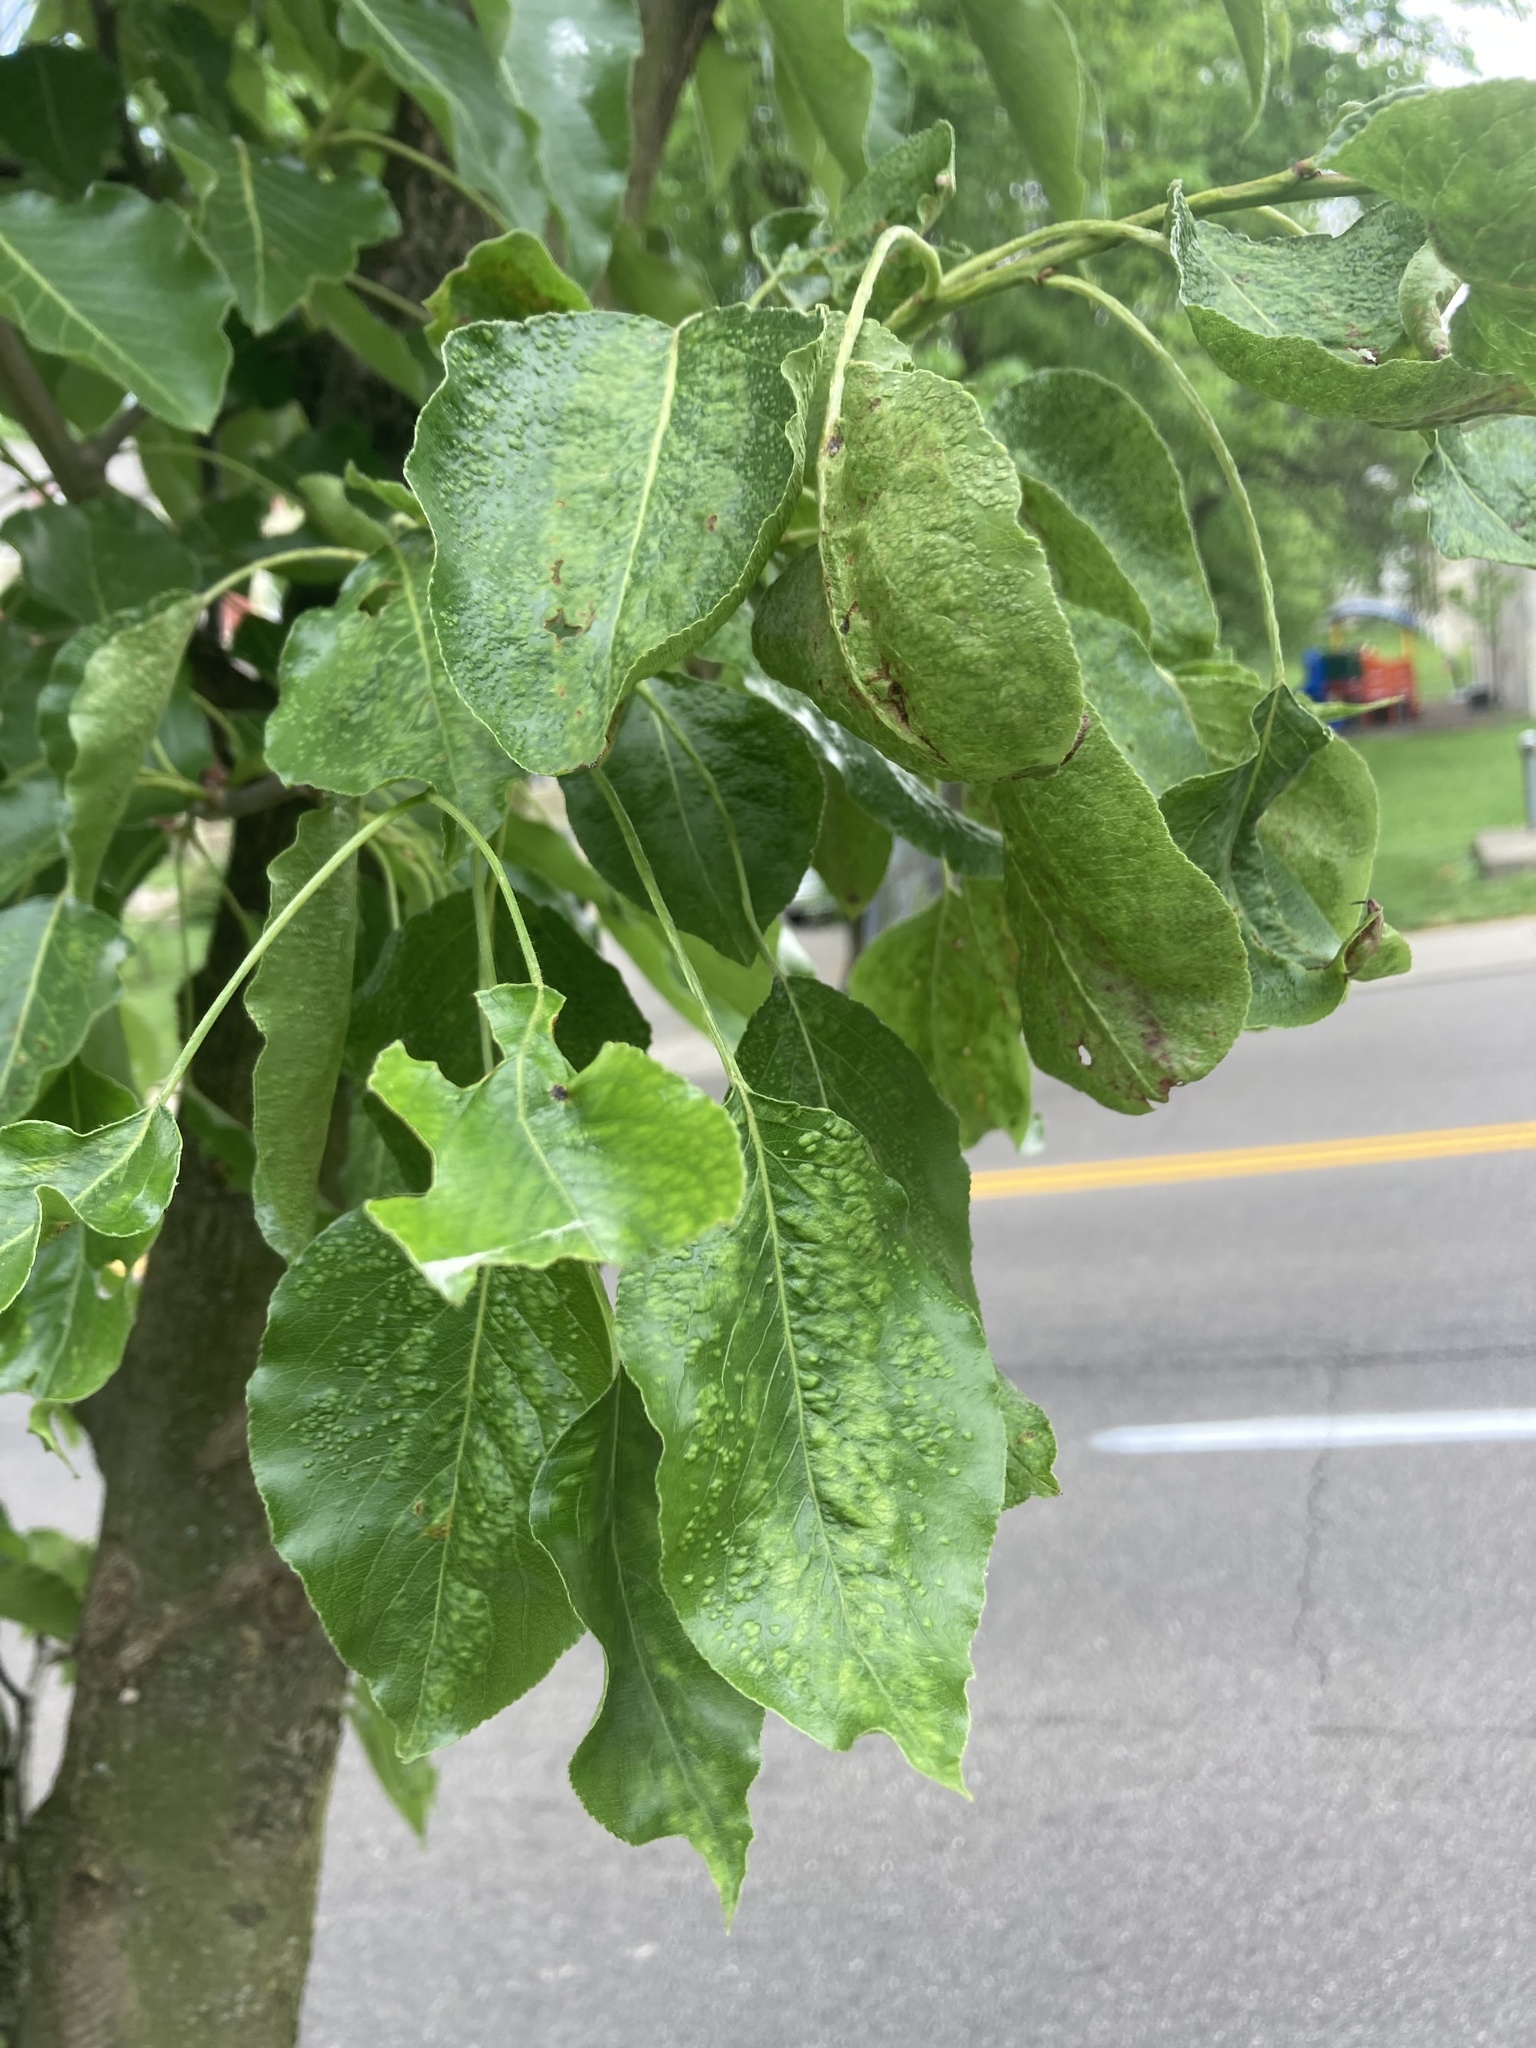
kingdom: Animalia
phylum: Arthropoda
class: Arachnida
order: Trombidiformes
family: Eriophyidae
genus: Eriophyes
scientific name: Eriophyes pyri
